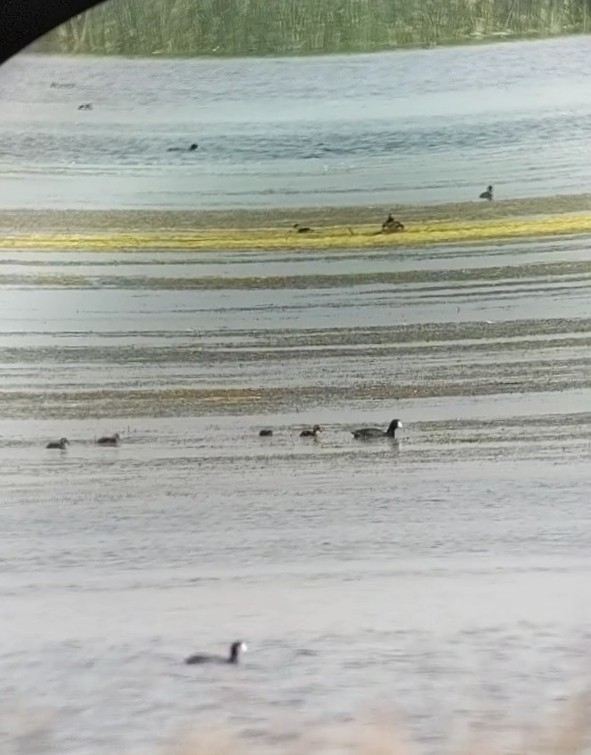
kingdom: Animalia
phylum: Chordata
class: Aves
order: Gruiformes
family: Rallidae
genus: Fulica
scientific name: Fulica americana
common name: American coot
